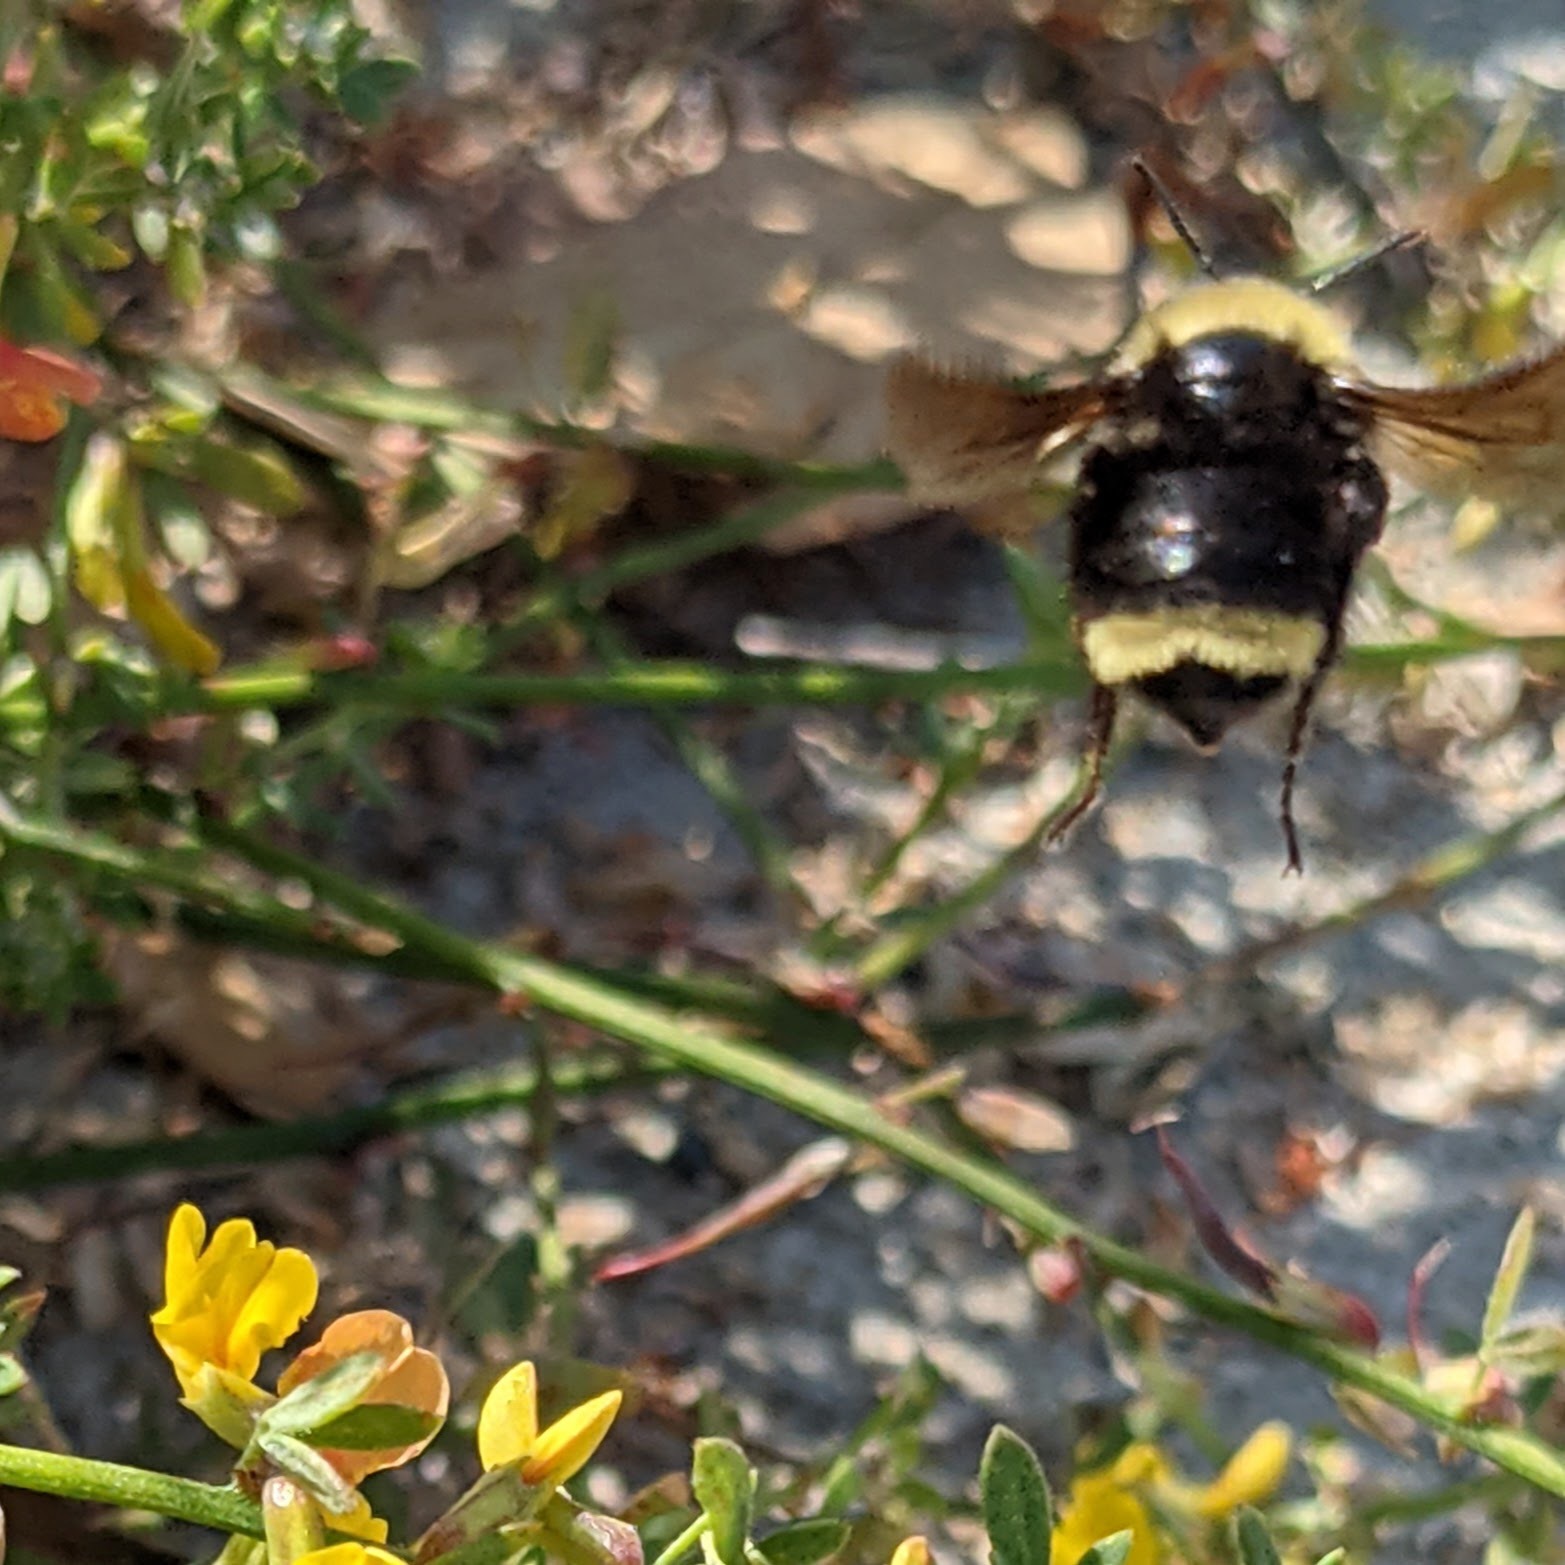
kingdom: Animalia
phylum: Arthropoda
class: Insecta
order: Hymenoptera
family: Apidae
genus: Bombus
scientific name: Bombus californicus
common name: California bumble bee
